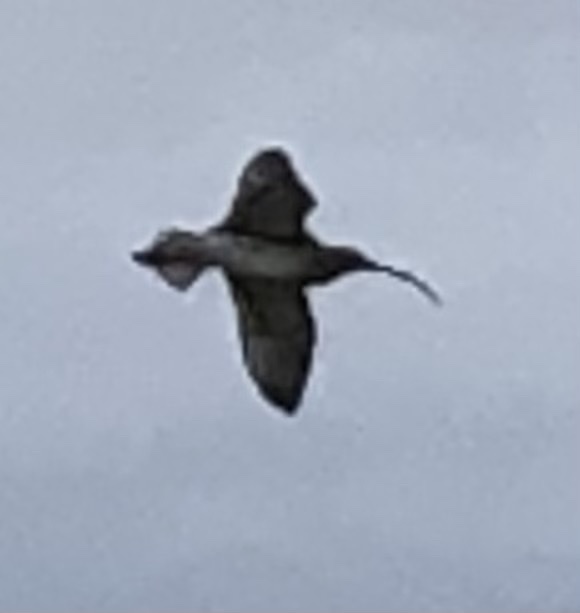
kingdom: Animalia
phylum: Chordata
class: Aves
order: Charadriiformes
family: Scolopacidae
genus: Numenius
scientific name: Numenius arquata
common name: Eurasian curlew
